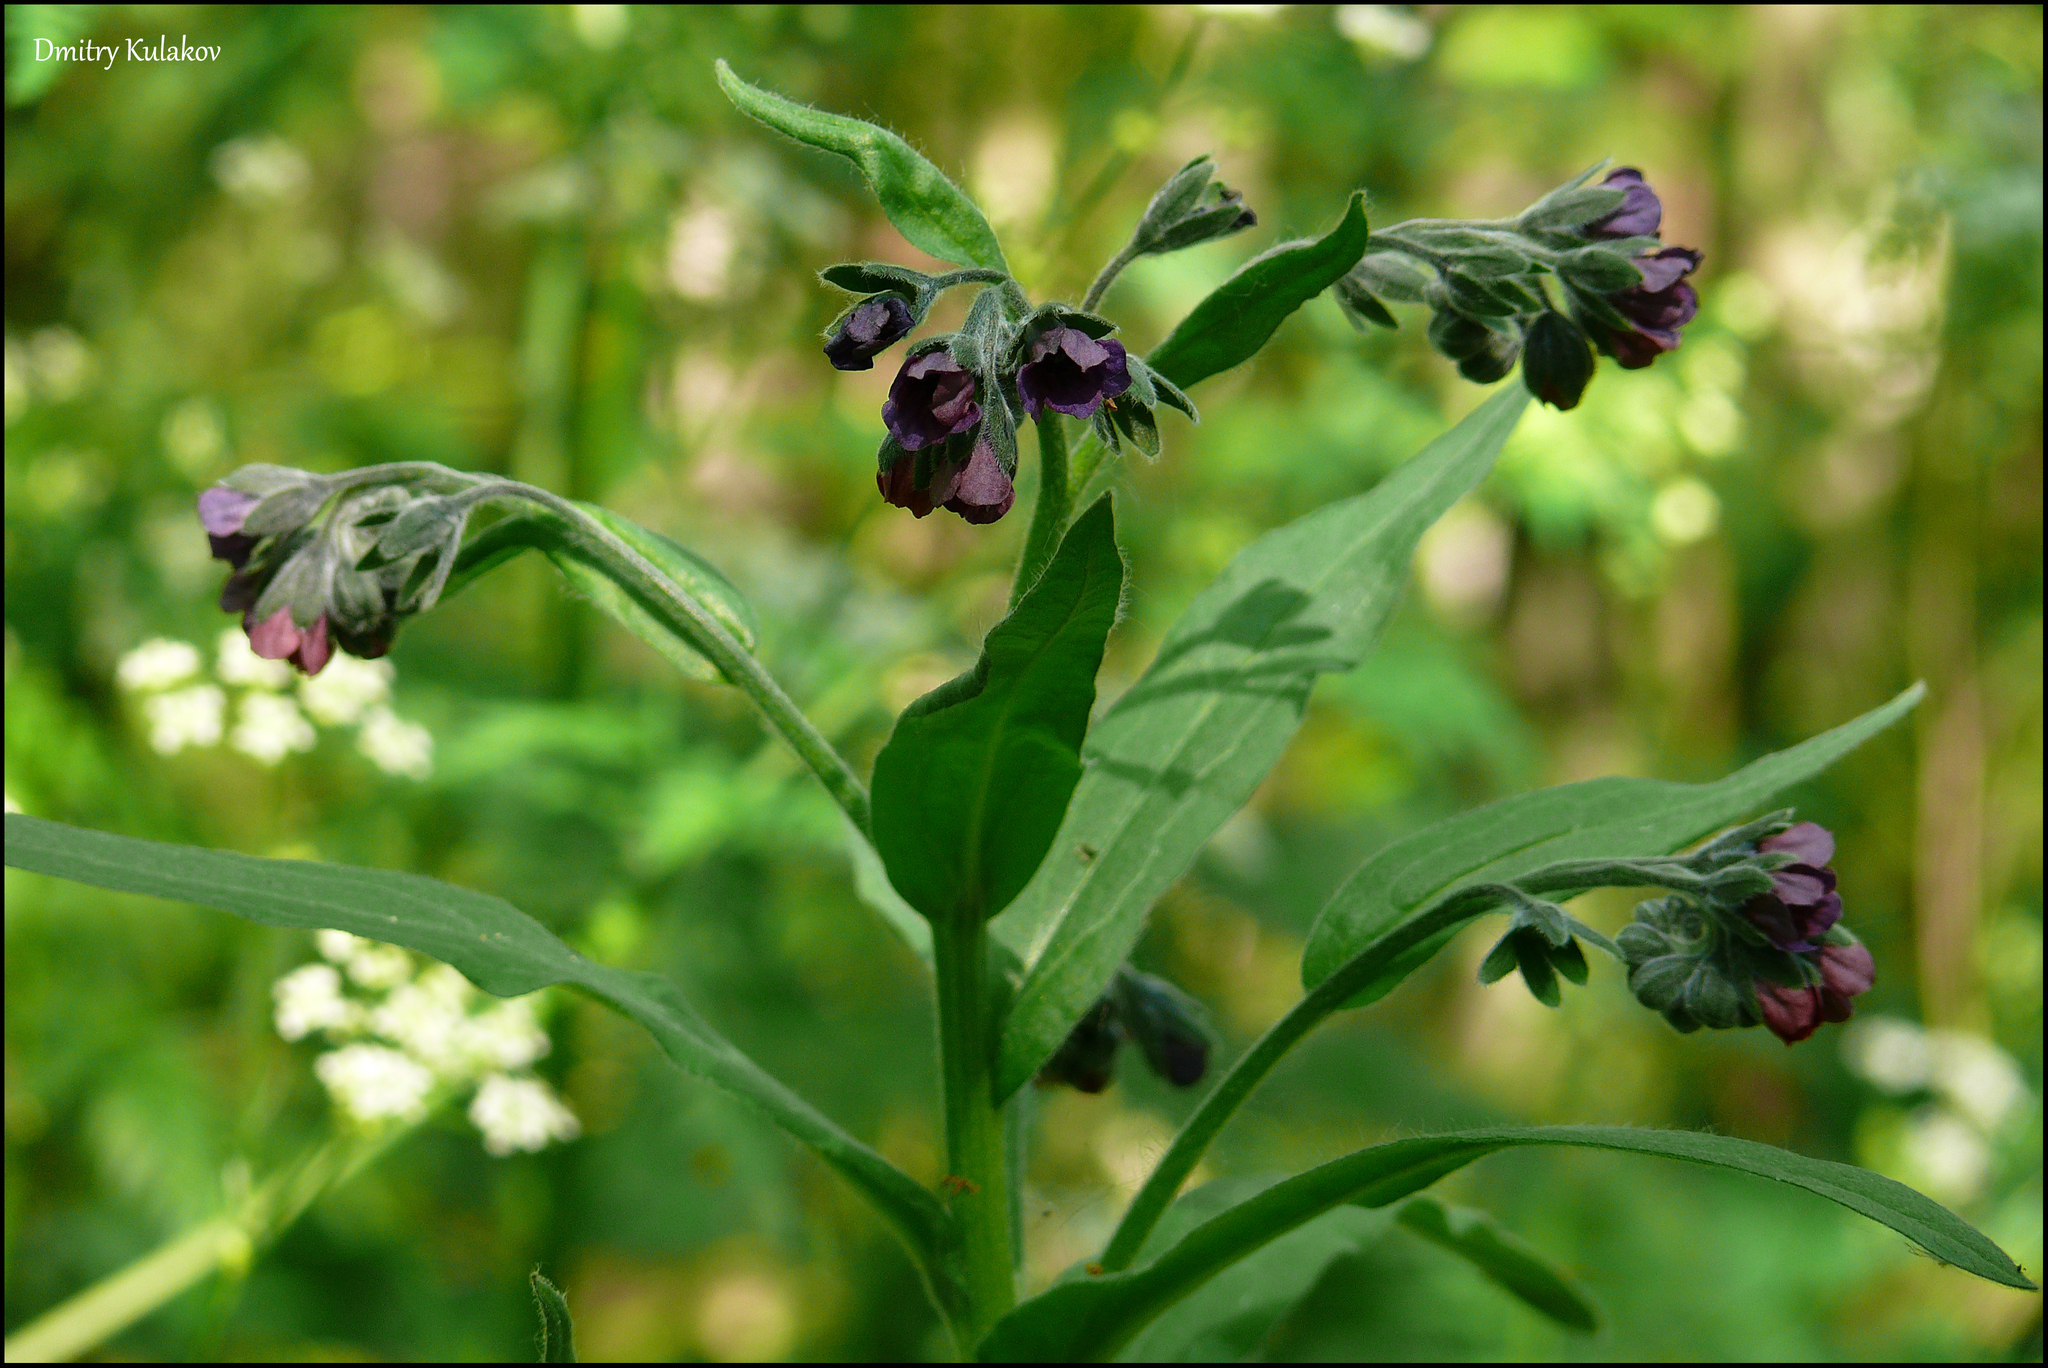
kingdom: Plantae
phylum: Tracheophyta
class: Magnoliopsida
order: Boraginales
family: Boraginaceae
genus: Cynoglossum
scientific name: Cynoglossum officinale
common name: Hound's-tongue
